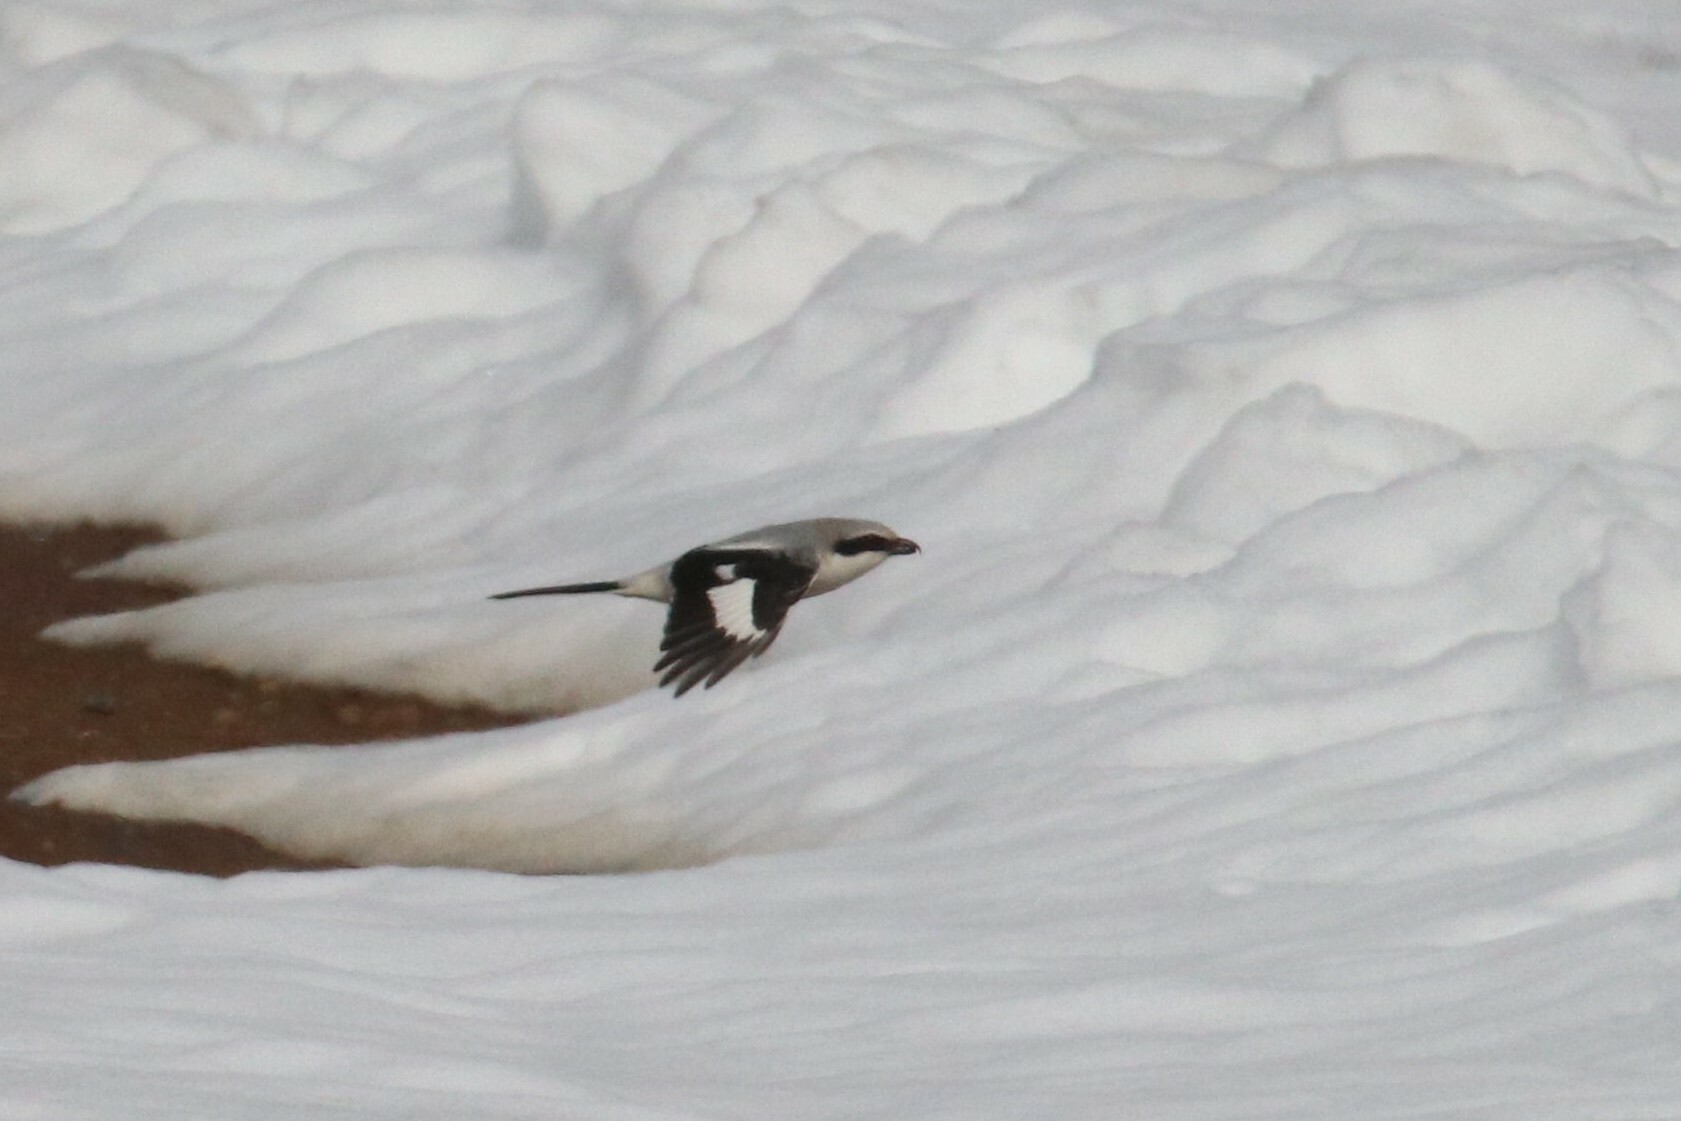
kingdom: Animalia
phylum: Chordata
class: Aves
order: Passeriformes
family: Laniidae
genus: Lanius
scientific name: Lanius excubitor
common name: Great grey shrike
